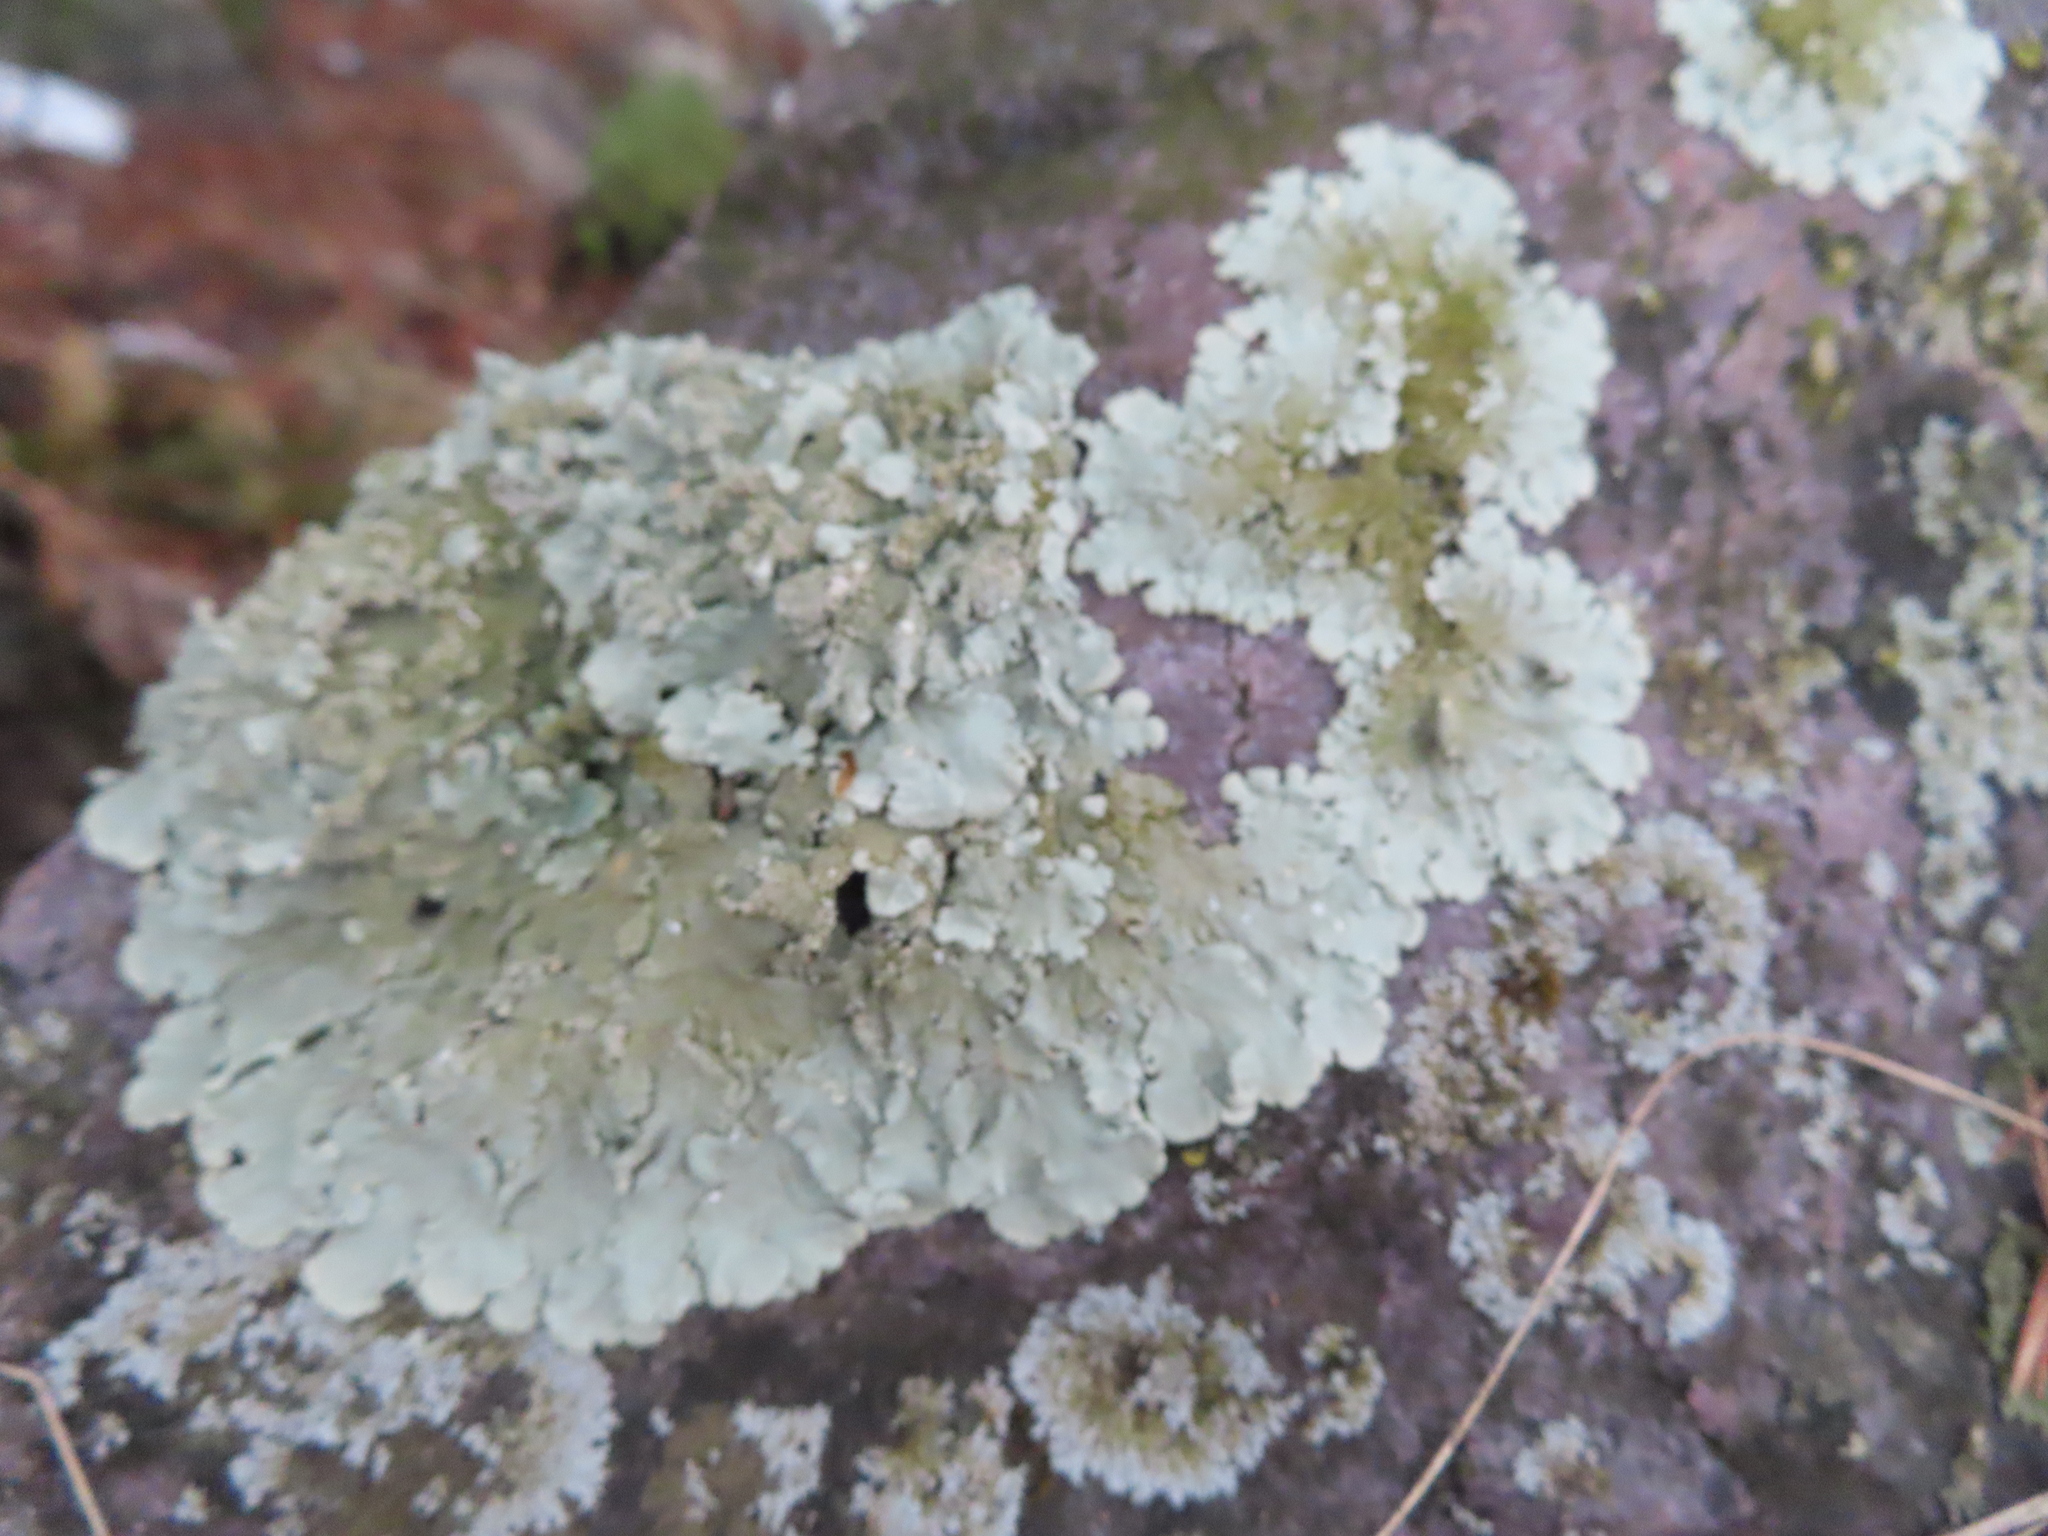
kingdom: Fungi
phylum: Ascomycota
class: Lecanoromycetes
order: Lecanorales
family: Parmeliaceae
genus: Flavoparmelia
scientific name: Flavoparmelia baltimorensis
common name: Rock greenshield
